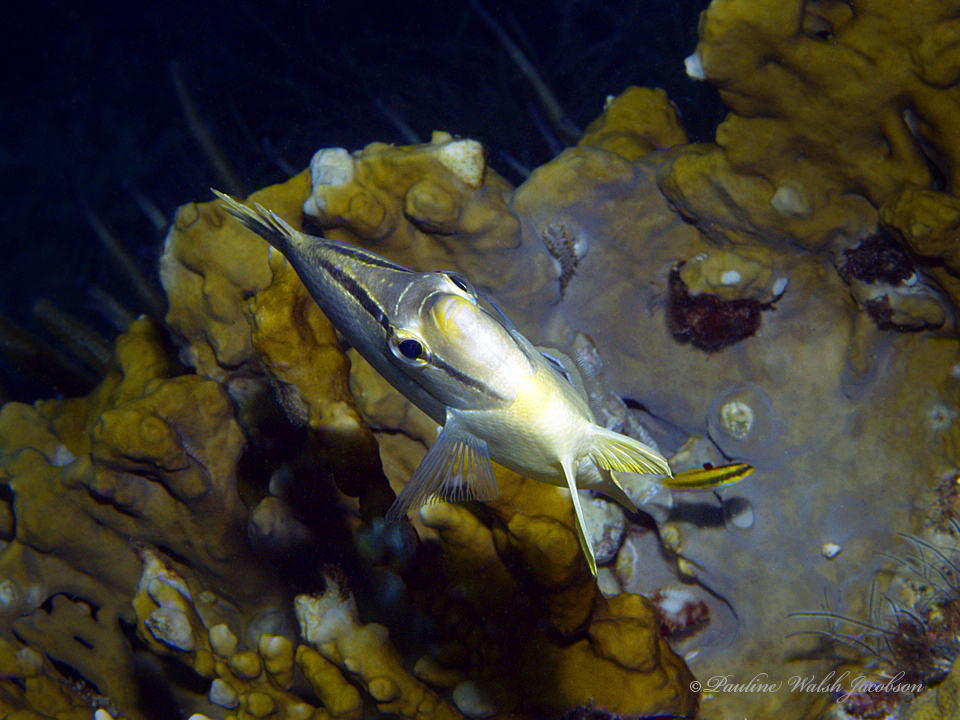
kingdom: Animalia
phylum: Chordata
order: Perciformes
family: Chaetodontidae
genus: Chaetodon
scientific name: Chaetodon capistratus
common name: Kete
